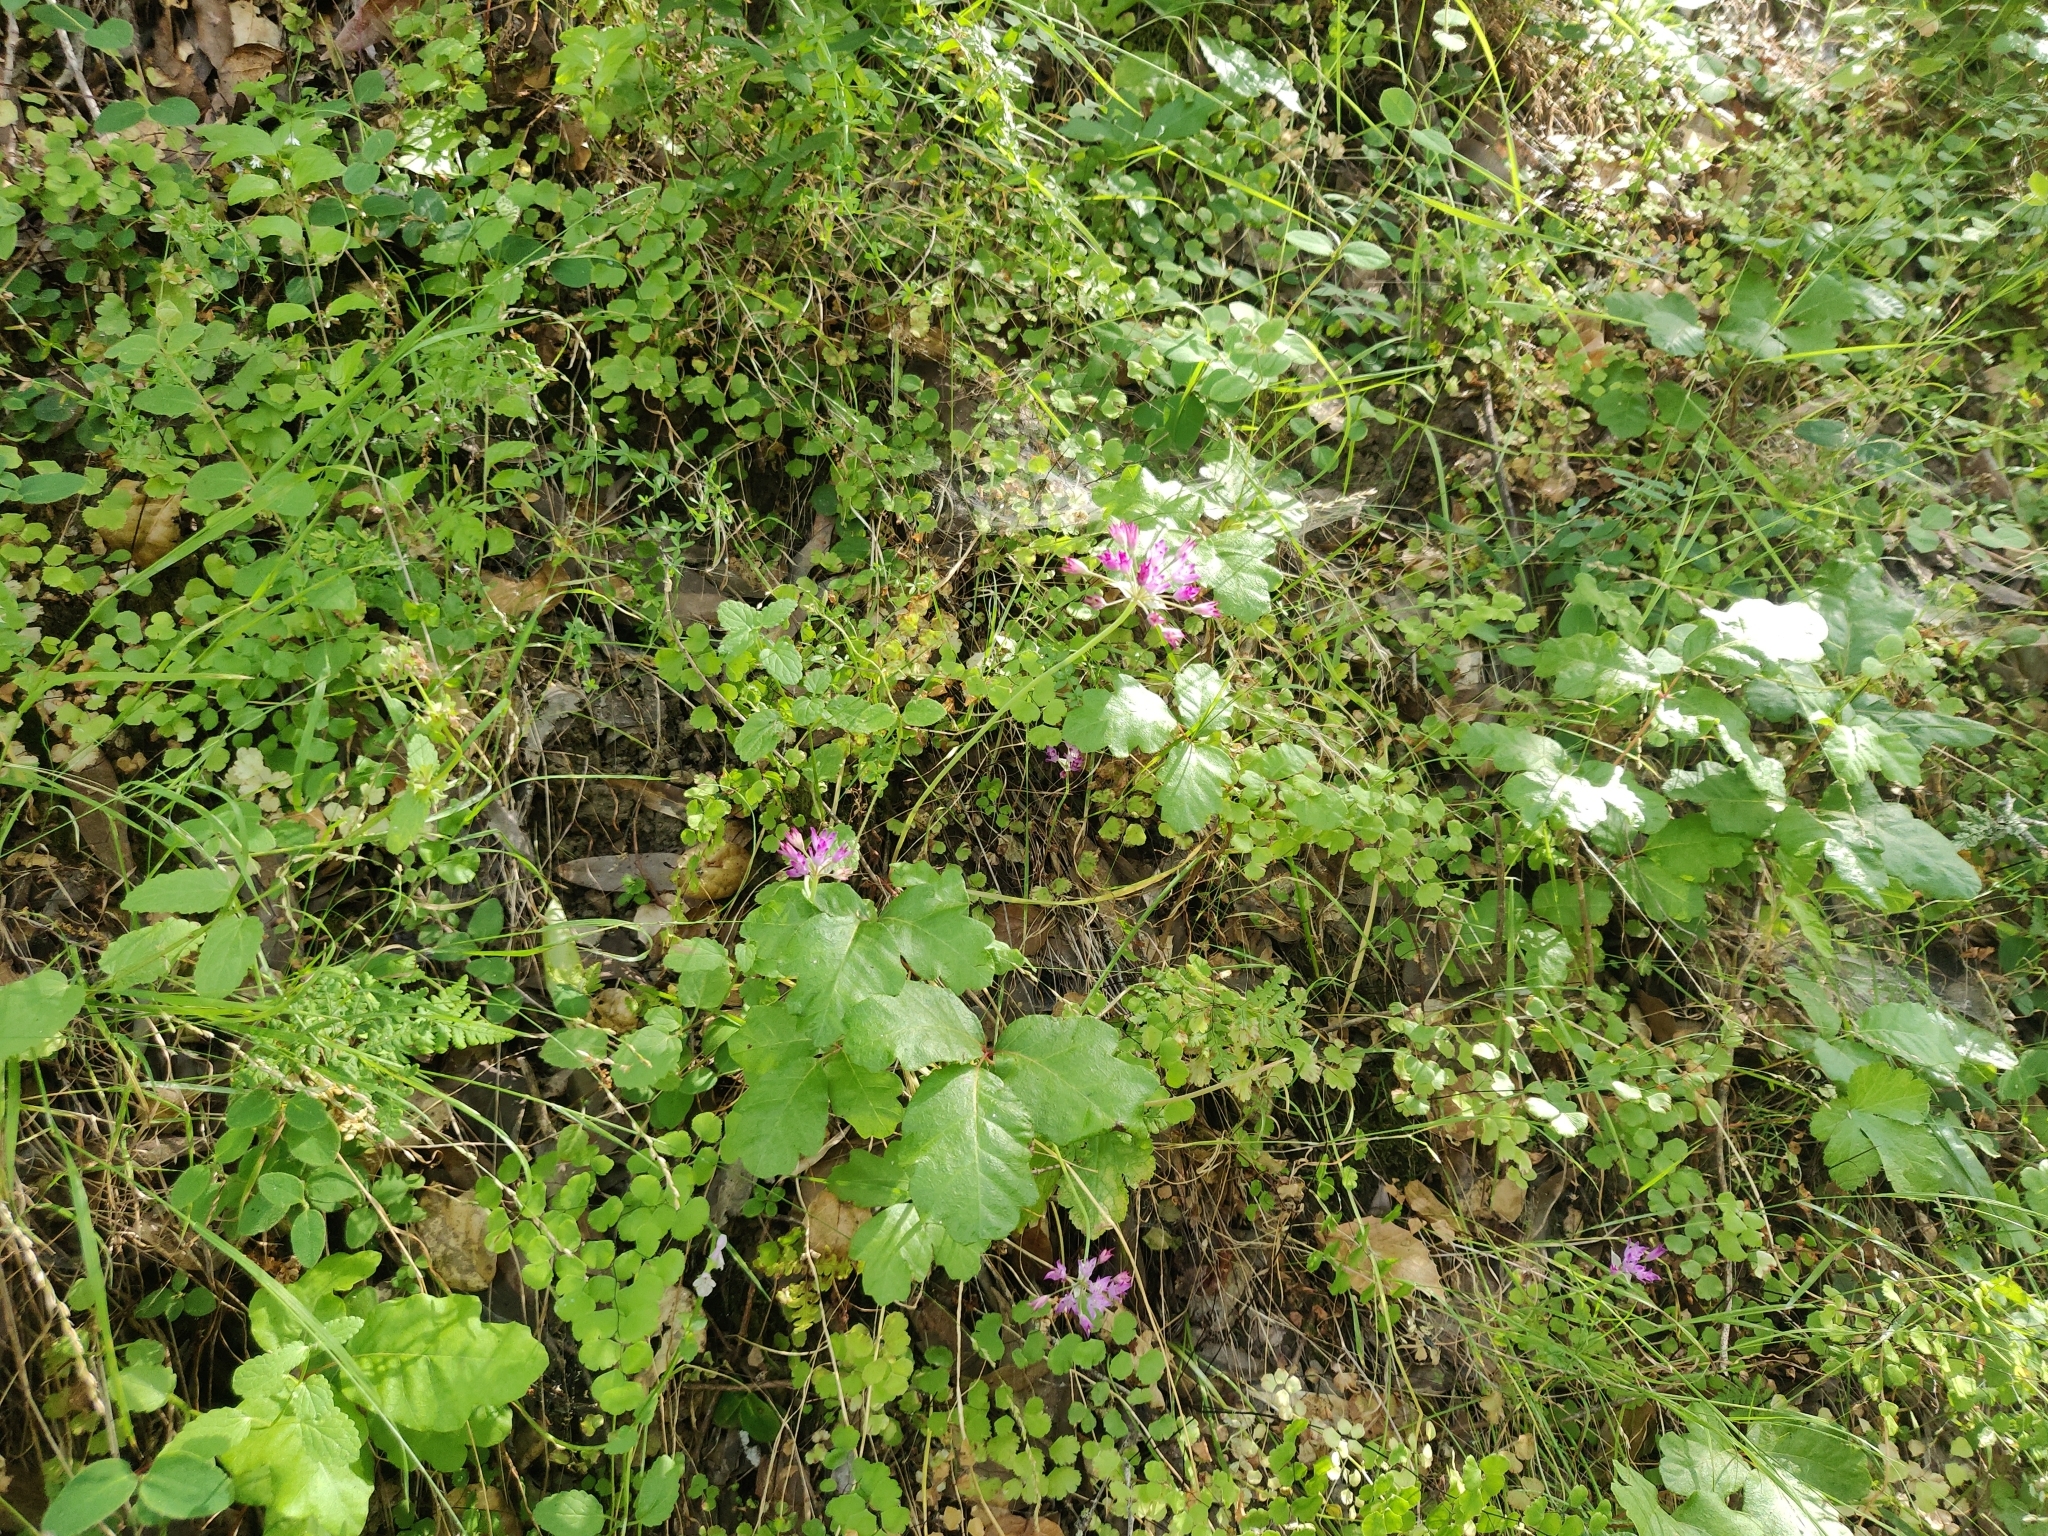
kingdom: Plantae
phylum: Tracheophyta
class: Liliopsida
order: Asparagales
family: Amaryllidaceae
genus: Allium
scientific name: Allium peninsulare
